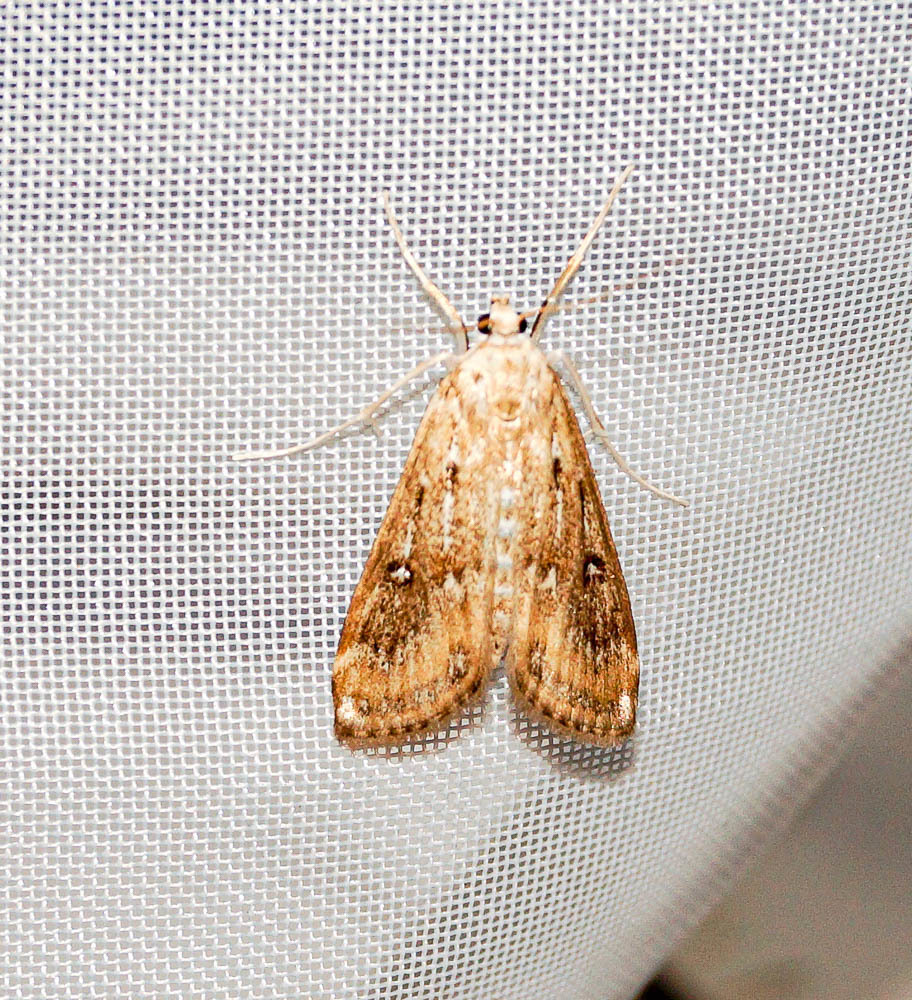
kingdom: Animalia
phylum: Arthropoda
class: Insecta
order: Lepidoptera
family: Crambidae
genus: Parapoynx
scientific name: Parapoynx stratiotata
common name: Ringed china-mark
